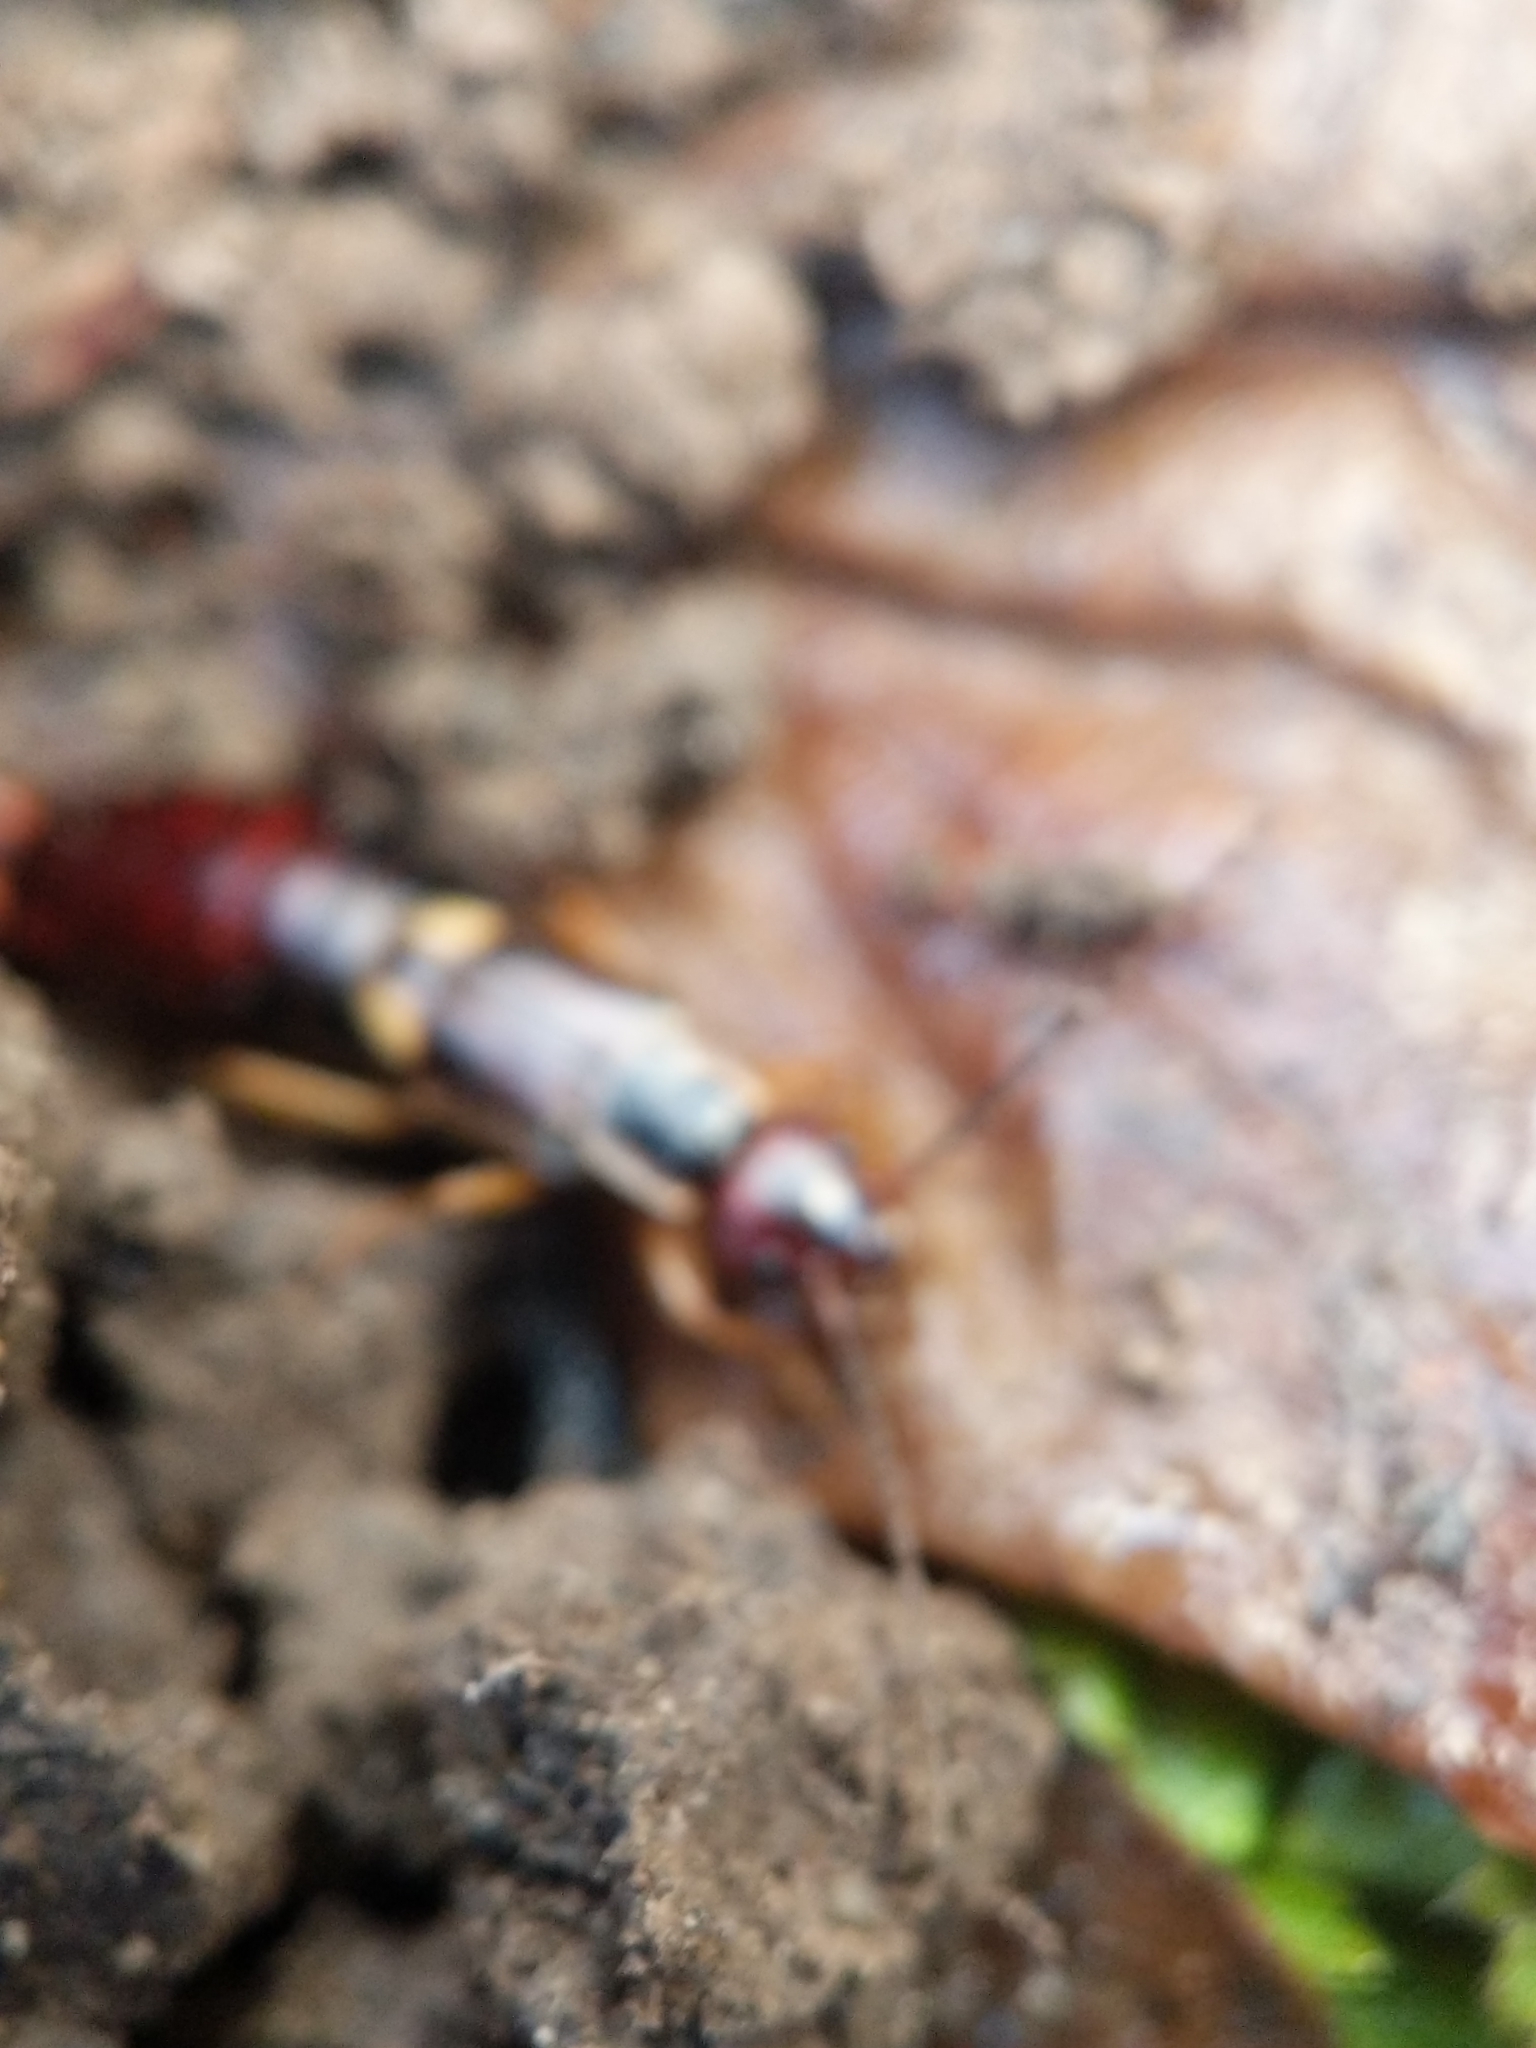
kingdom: Animalia
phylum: Arthropoda
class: Insecta
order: Dermaptera
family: Forficulidae
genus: Forficula
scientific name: Forficula
